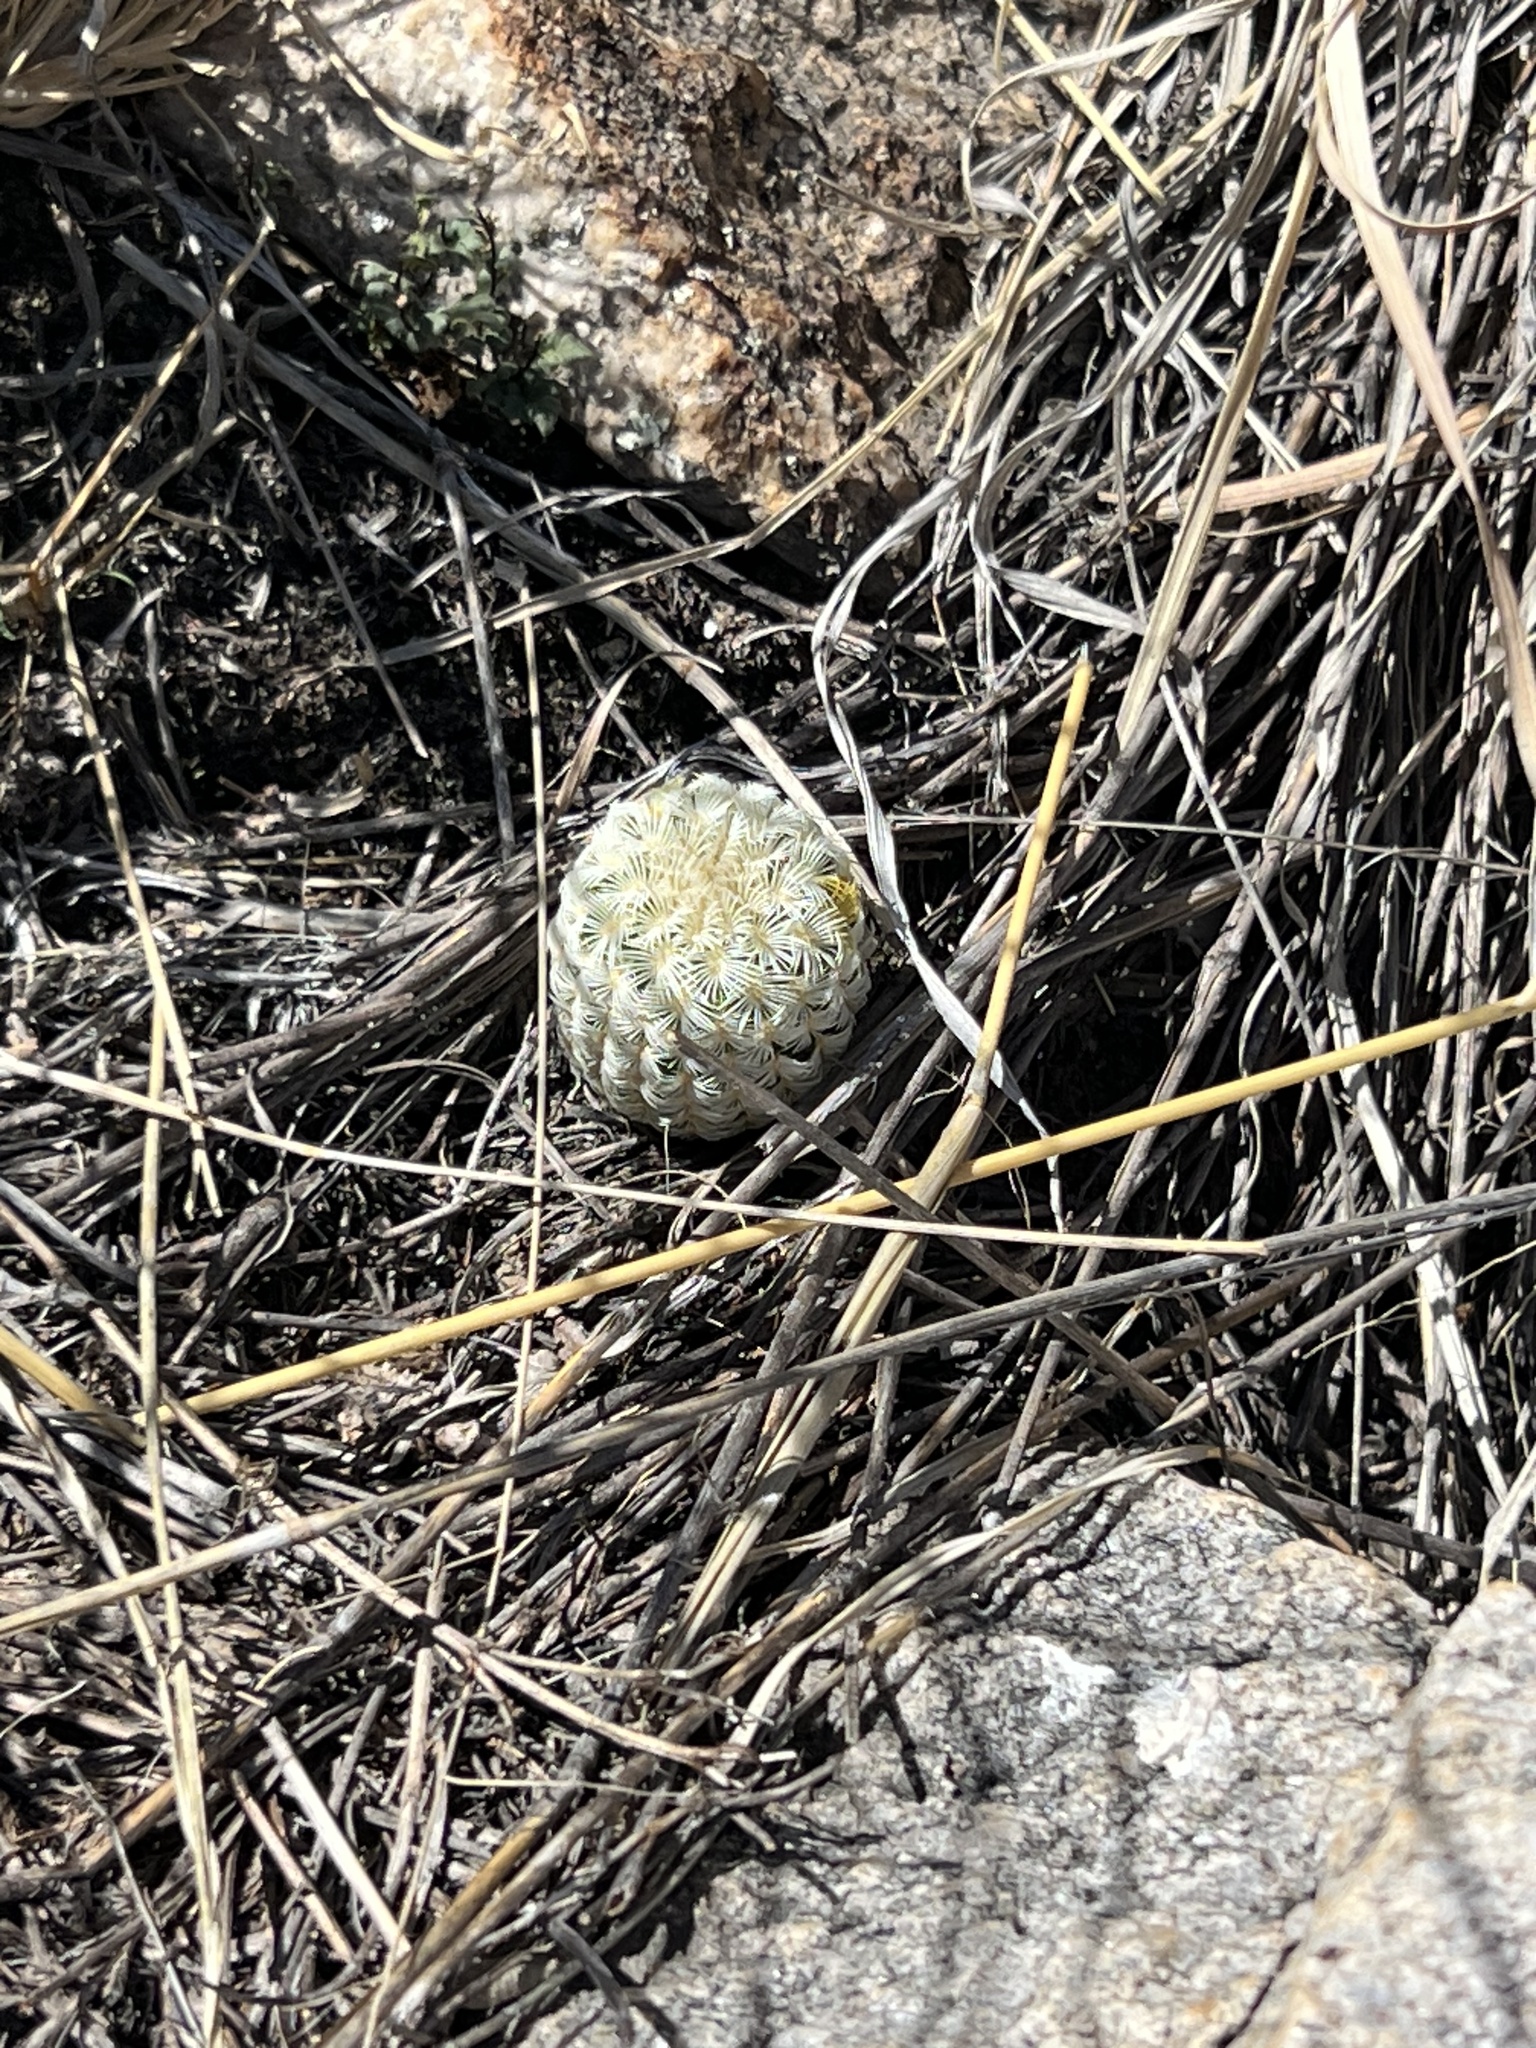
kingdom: Plantae
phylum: Tracheophyta
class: Magnoliopsida
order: Caryophyllales
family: Cactaceae
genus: Echinocereus
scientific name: Echinocereus rigidissimus
